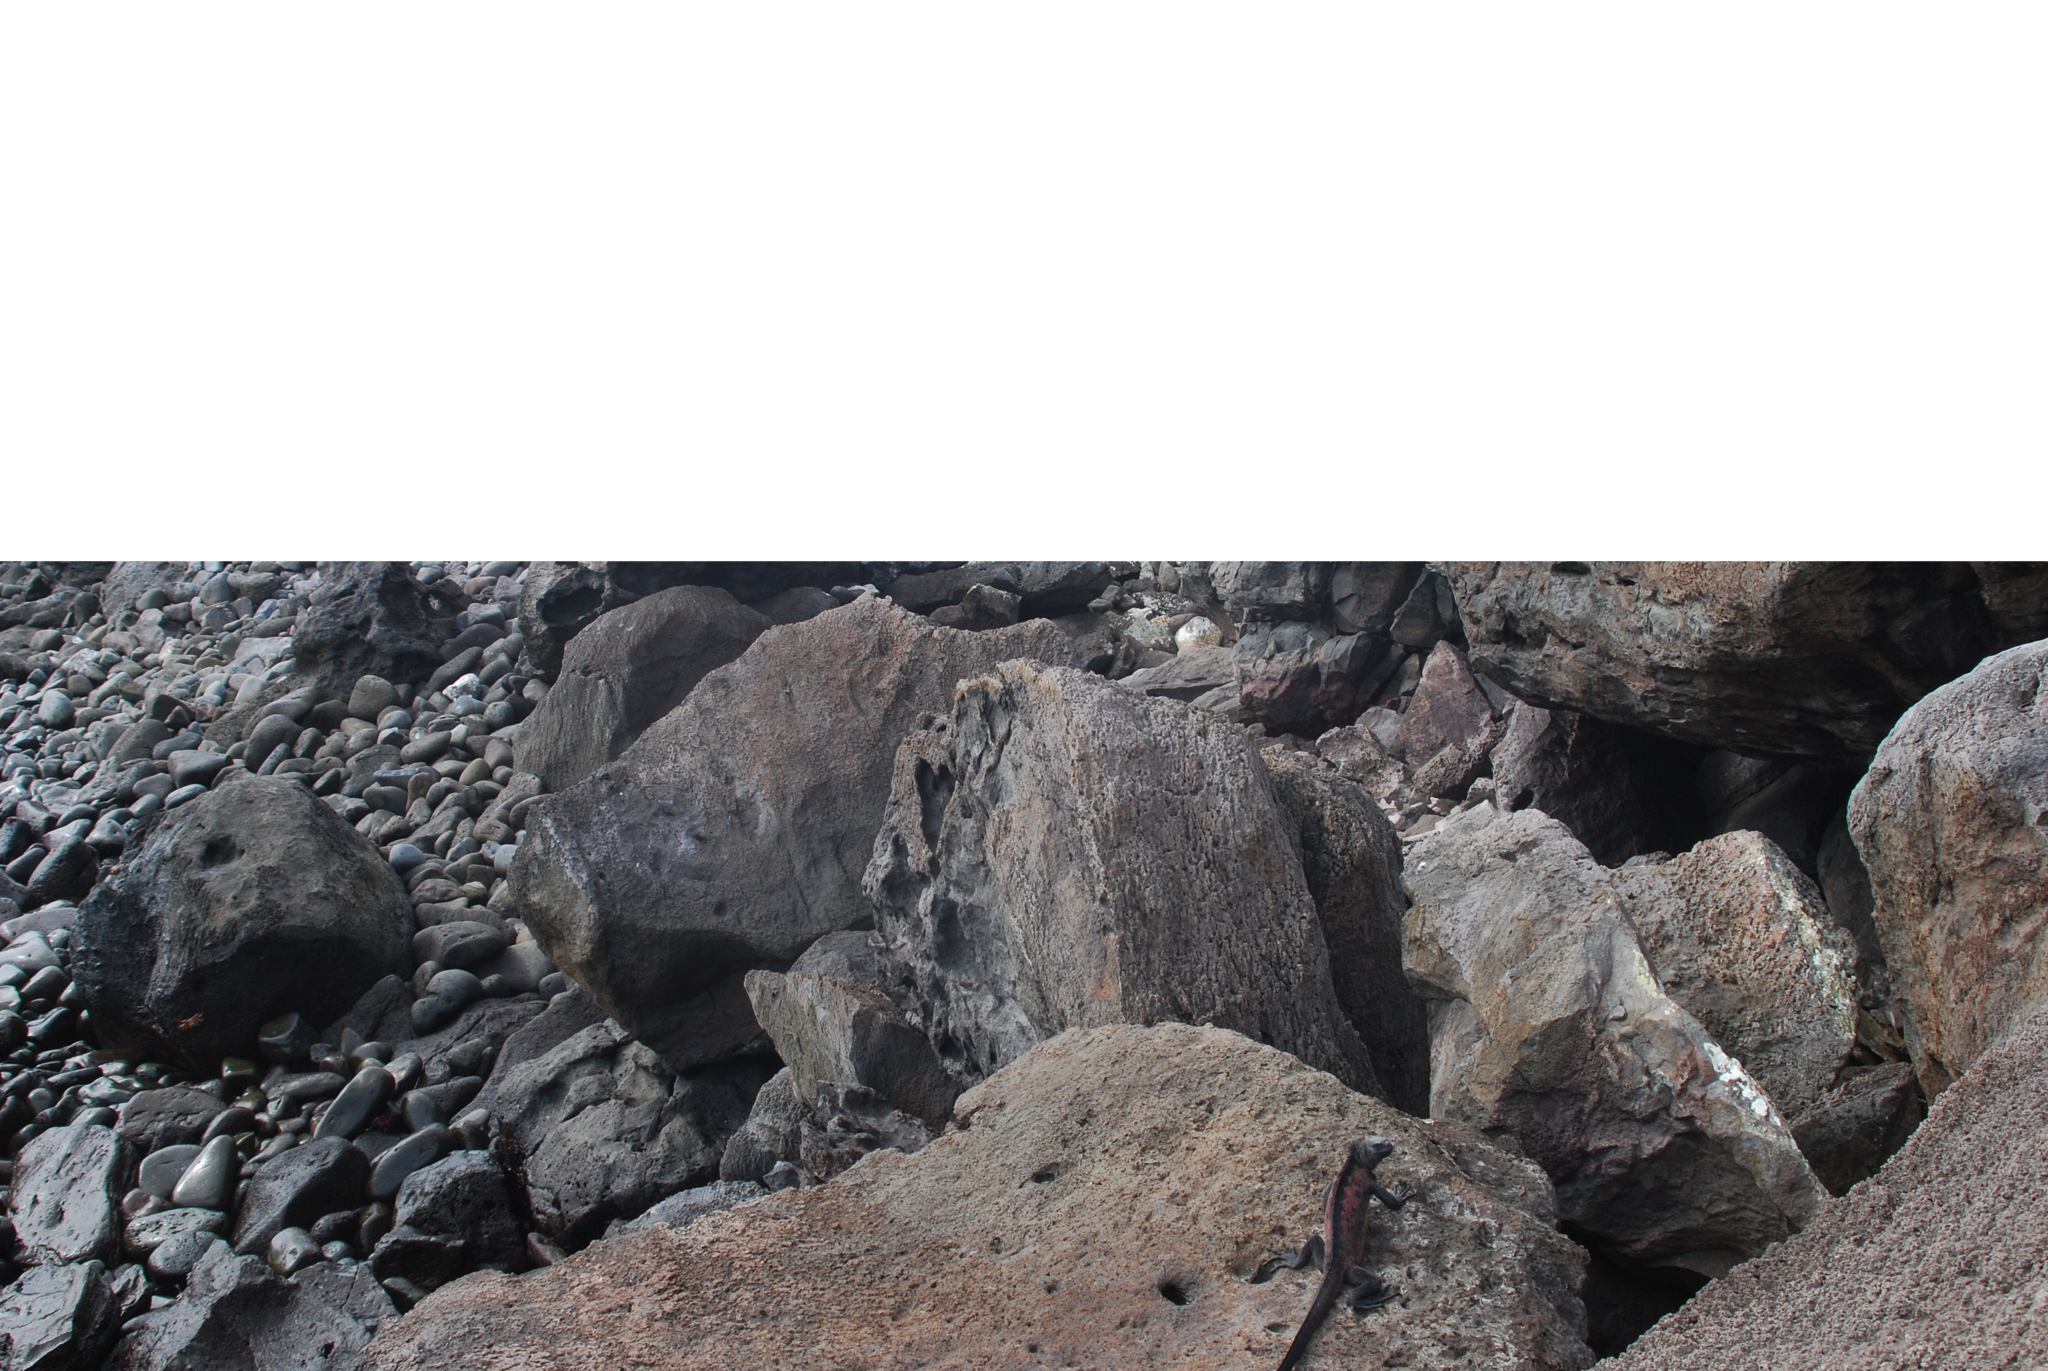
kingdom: Animalia
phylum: Chordata
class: Squamata
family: Iguanidae
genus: Amblyrhynchus
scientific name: Amblyrhynchus cristatus
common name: Marine iguana
